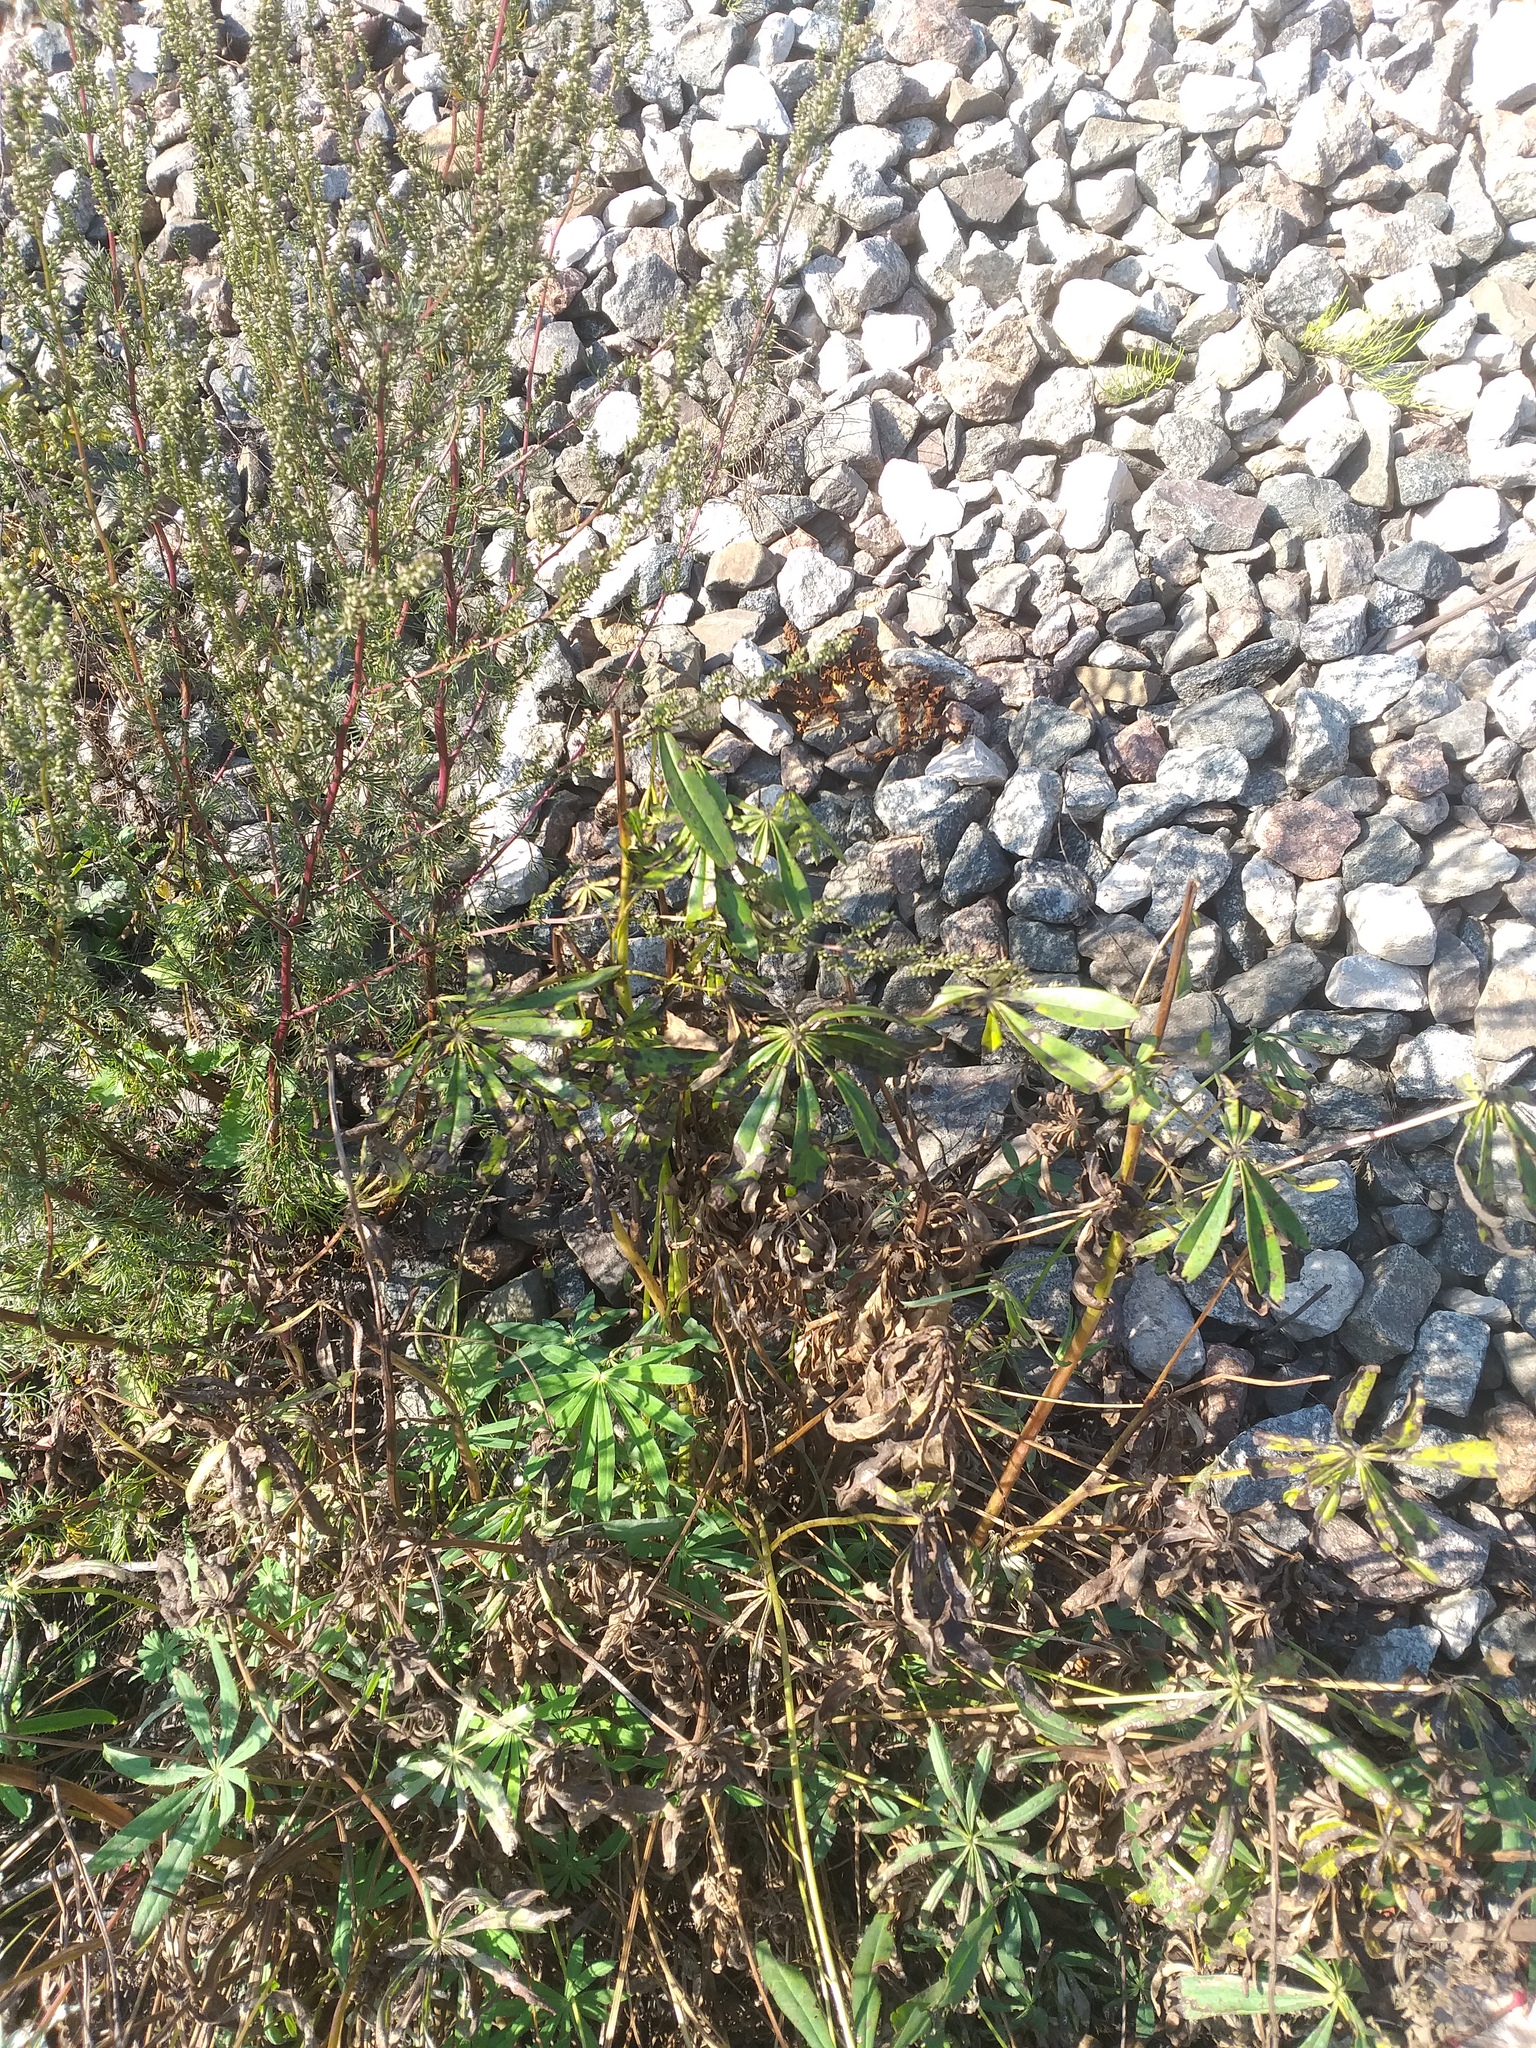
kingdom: Plantae
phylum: Tracheophyta
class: Magnoliopsida
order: Fabales
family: Fabaceae
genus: Lupinus
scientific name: Lupinus polyphyllus
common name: Garden lupin
